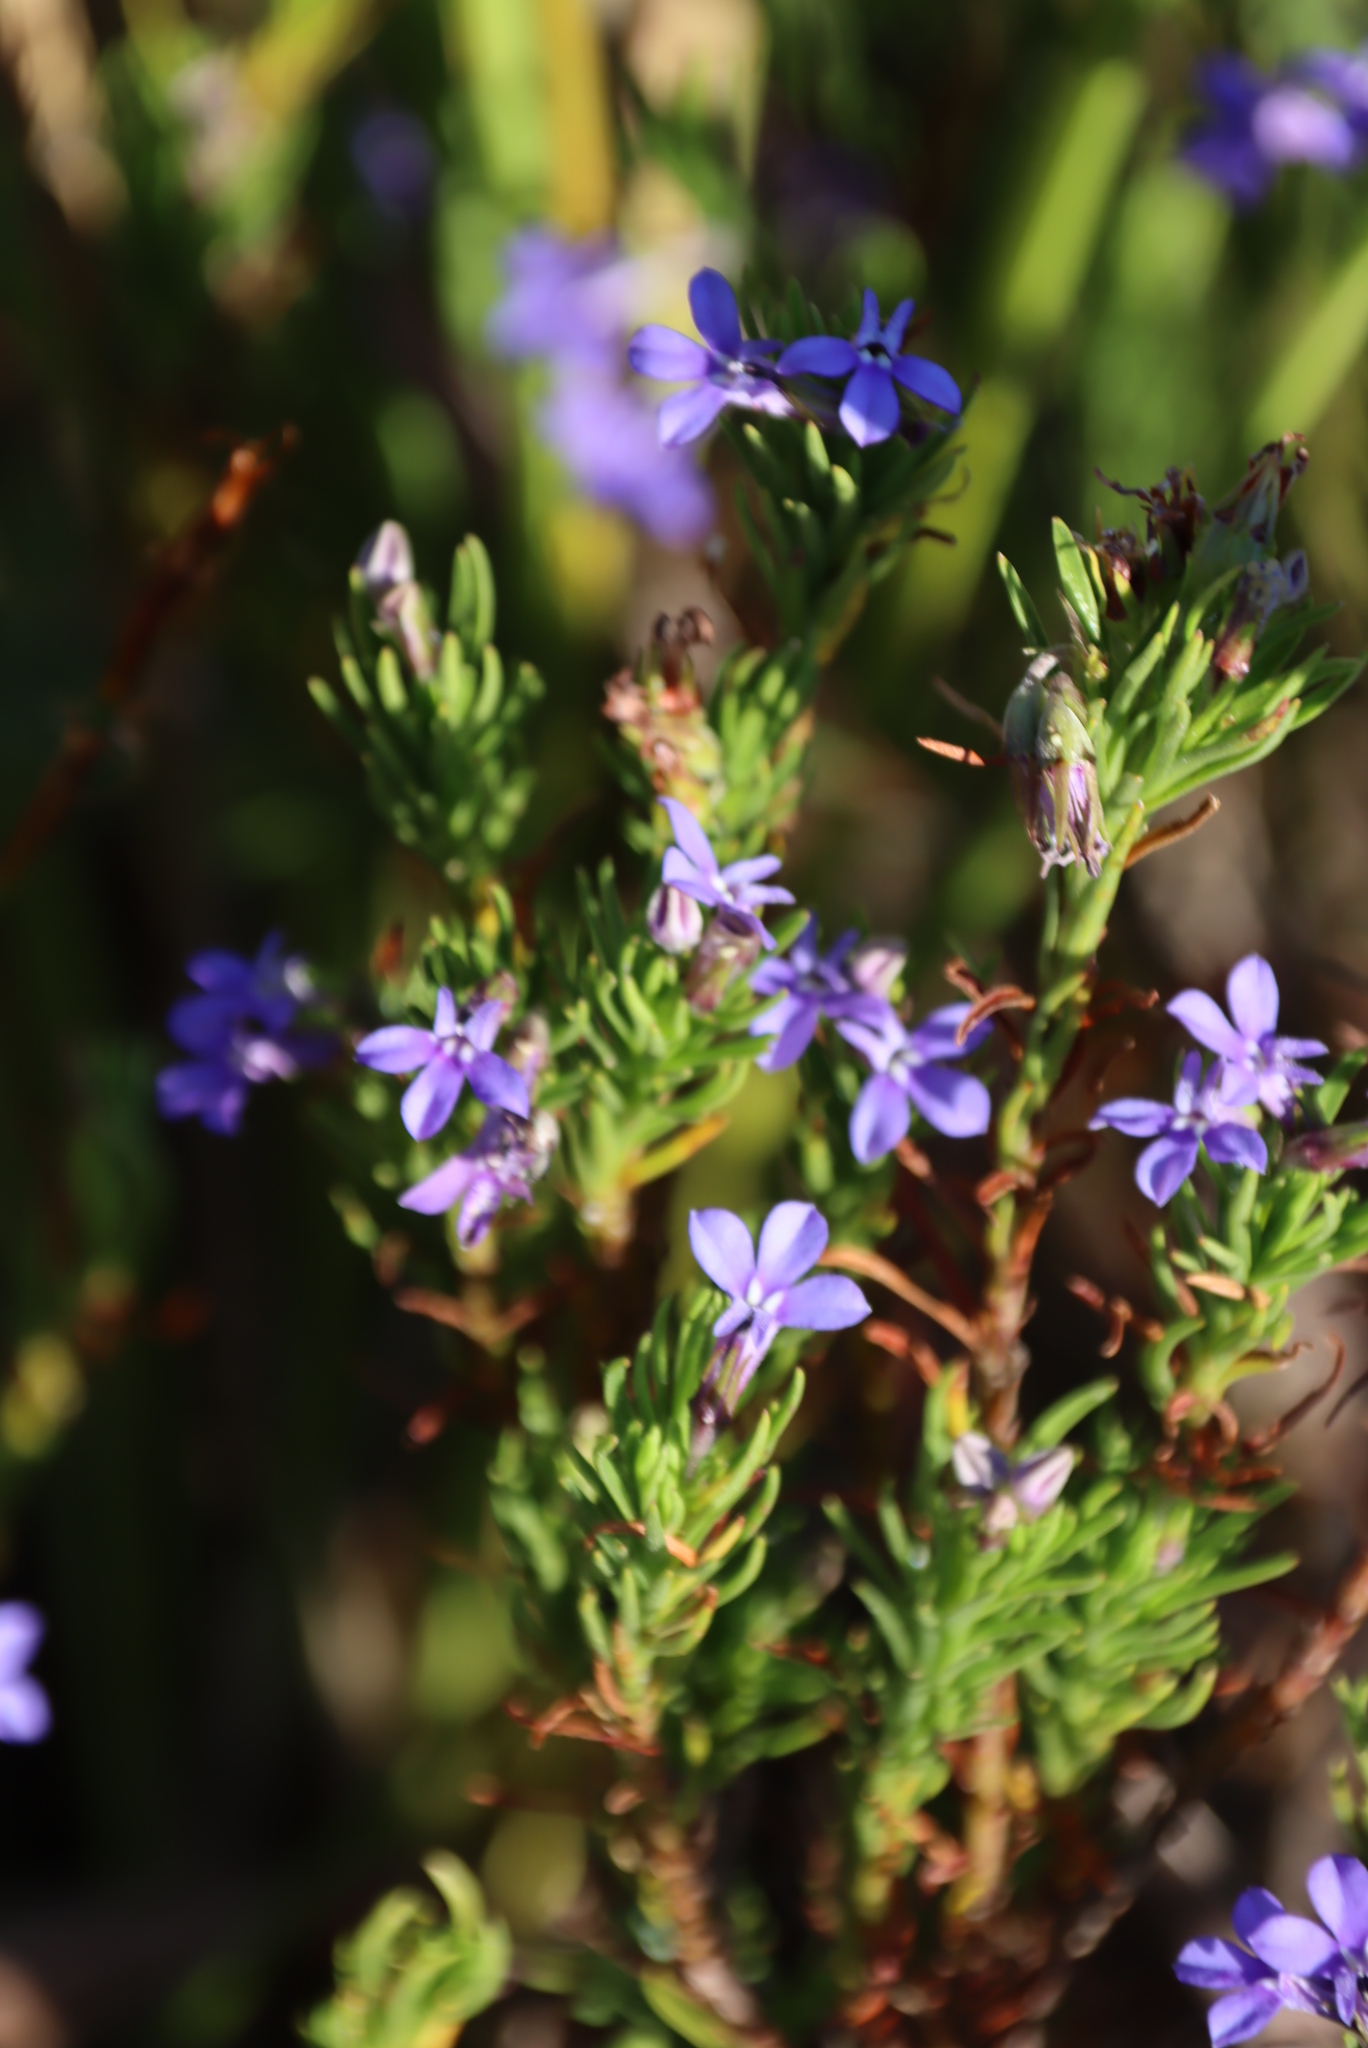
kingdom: Plantae
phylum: Tracheophyta
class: Magnoliopsida
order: Asterales
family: Campanulaceae
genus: Lobelia
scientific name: Lobelia pinifolia
